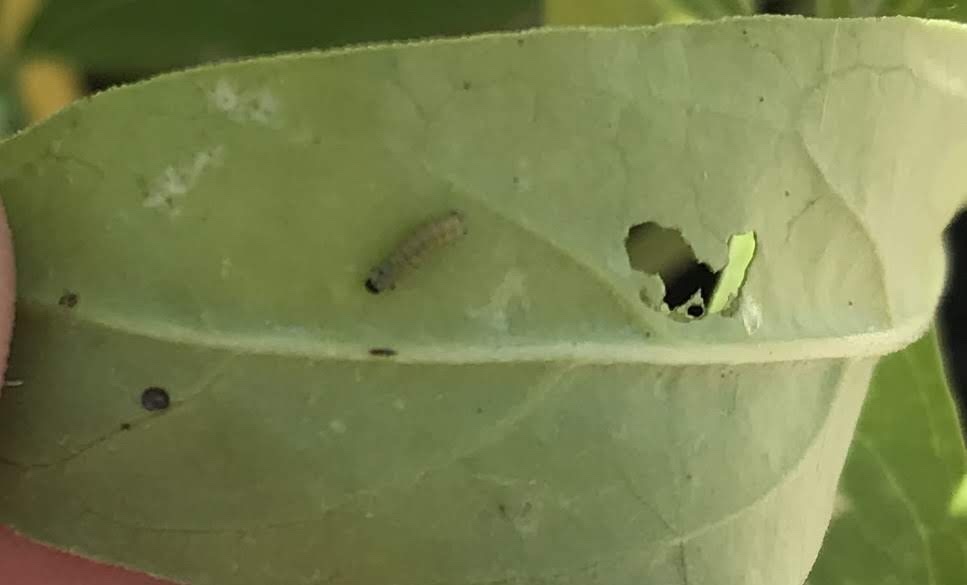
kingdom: Animalia
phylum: Arthropoda
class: Insecta
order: Lepidoptera
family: Nymphalidae
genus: Danaus
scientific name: Danaus plexippus
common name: Monarch
